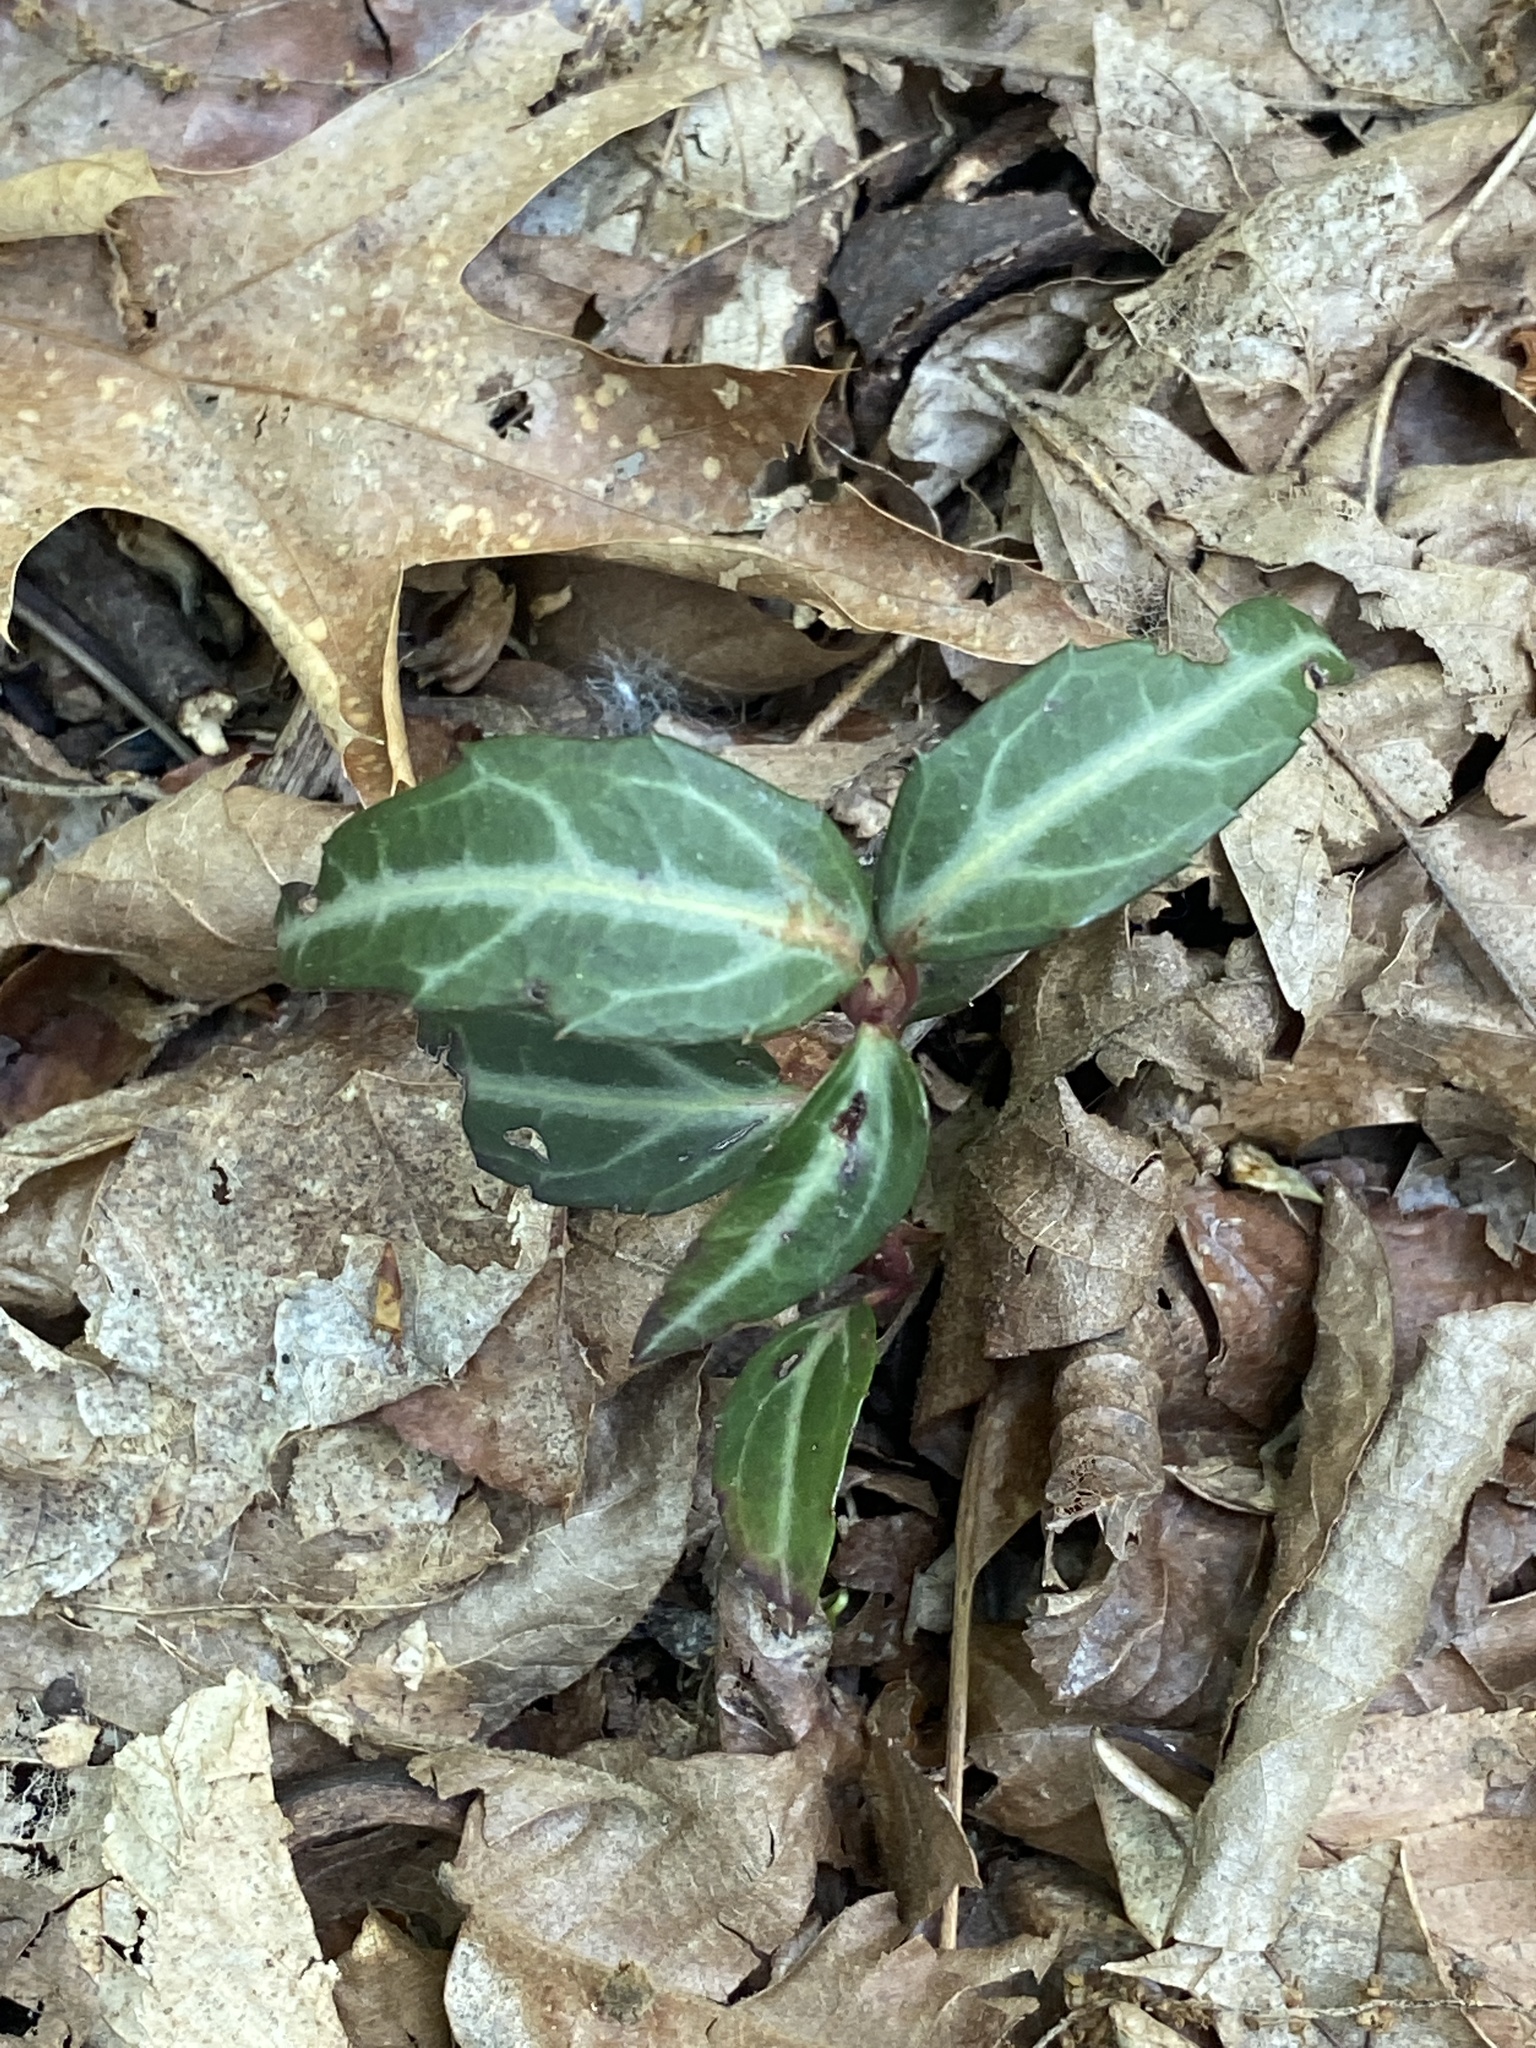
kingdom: Plantae
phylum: Tracheophyta
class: Magnoliopsida
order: Ericales
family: Ericaceae
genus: Chimaphila
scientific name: Chimaphila maculata
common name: Spotted pipsissewa
